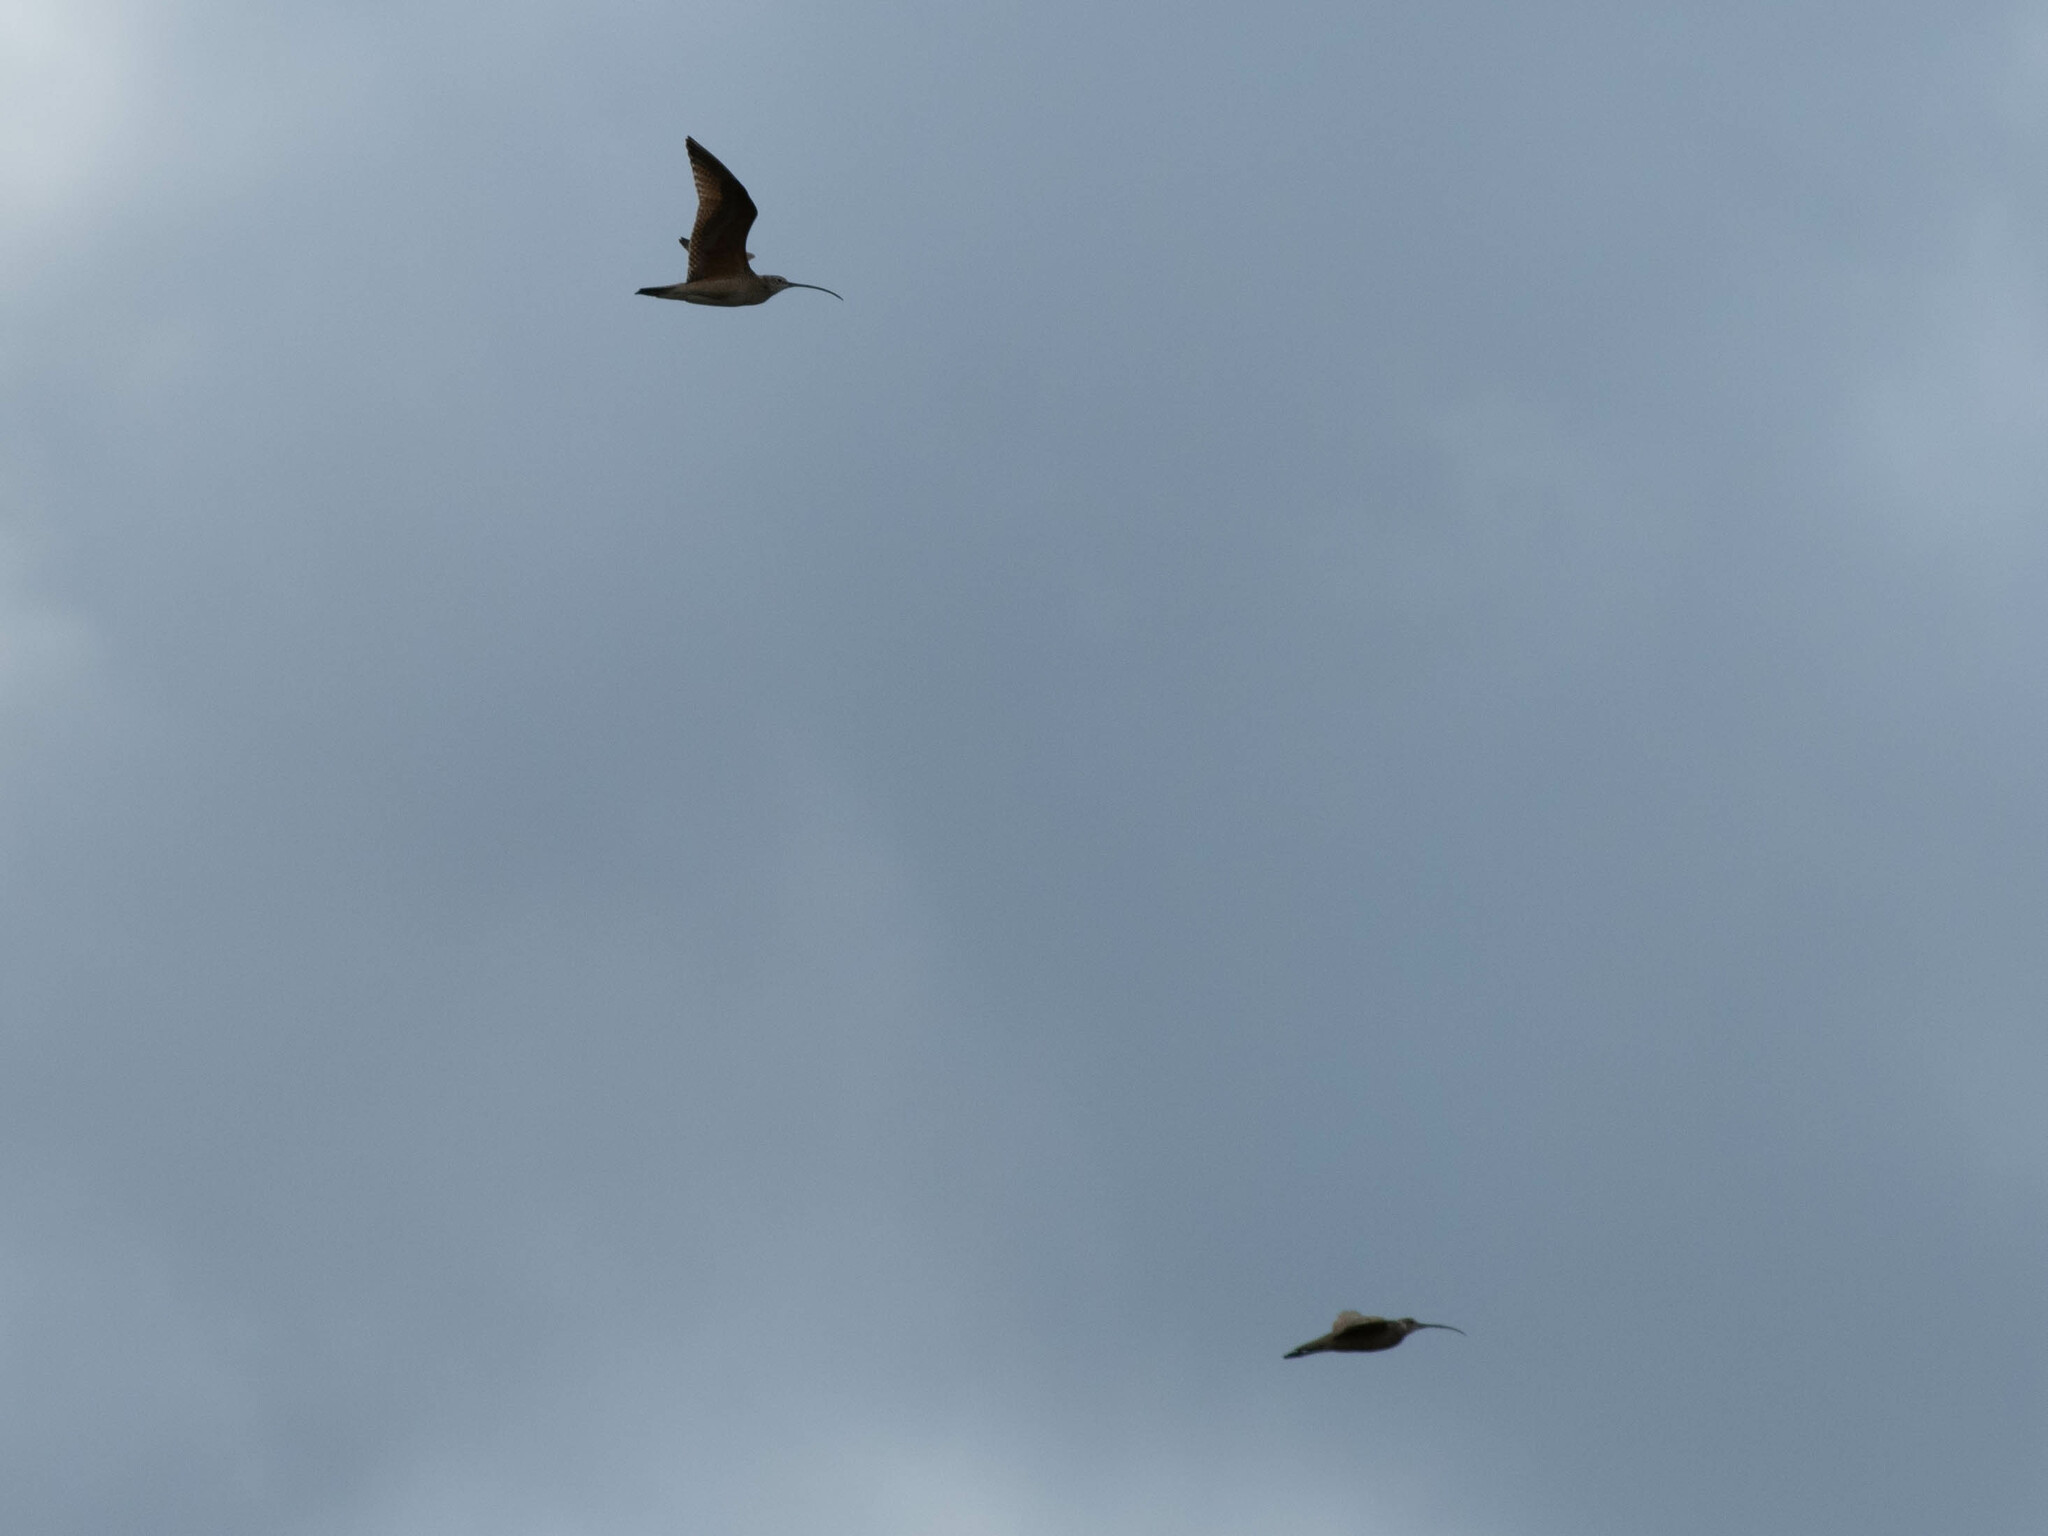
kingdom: Animalia
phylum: Chordata
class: Aves
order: Charadriiformes
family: Scolopacidae
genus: Numenius
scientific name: Numenius americanus
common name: Long-billed curlew
